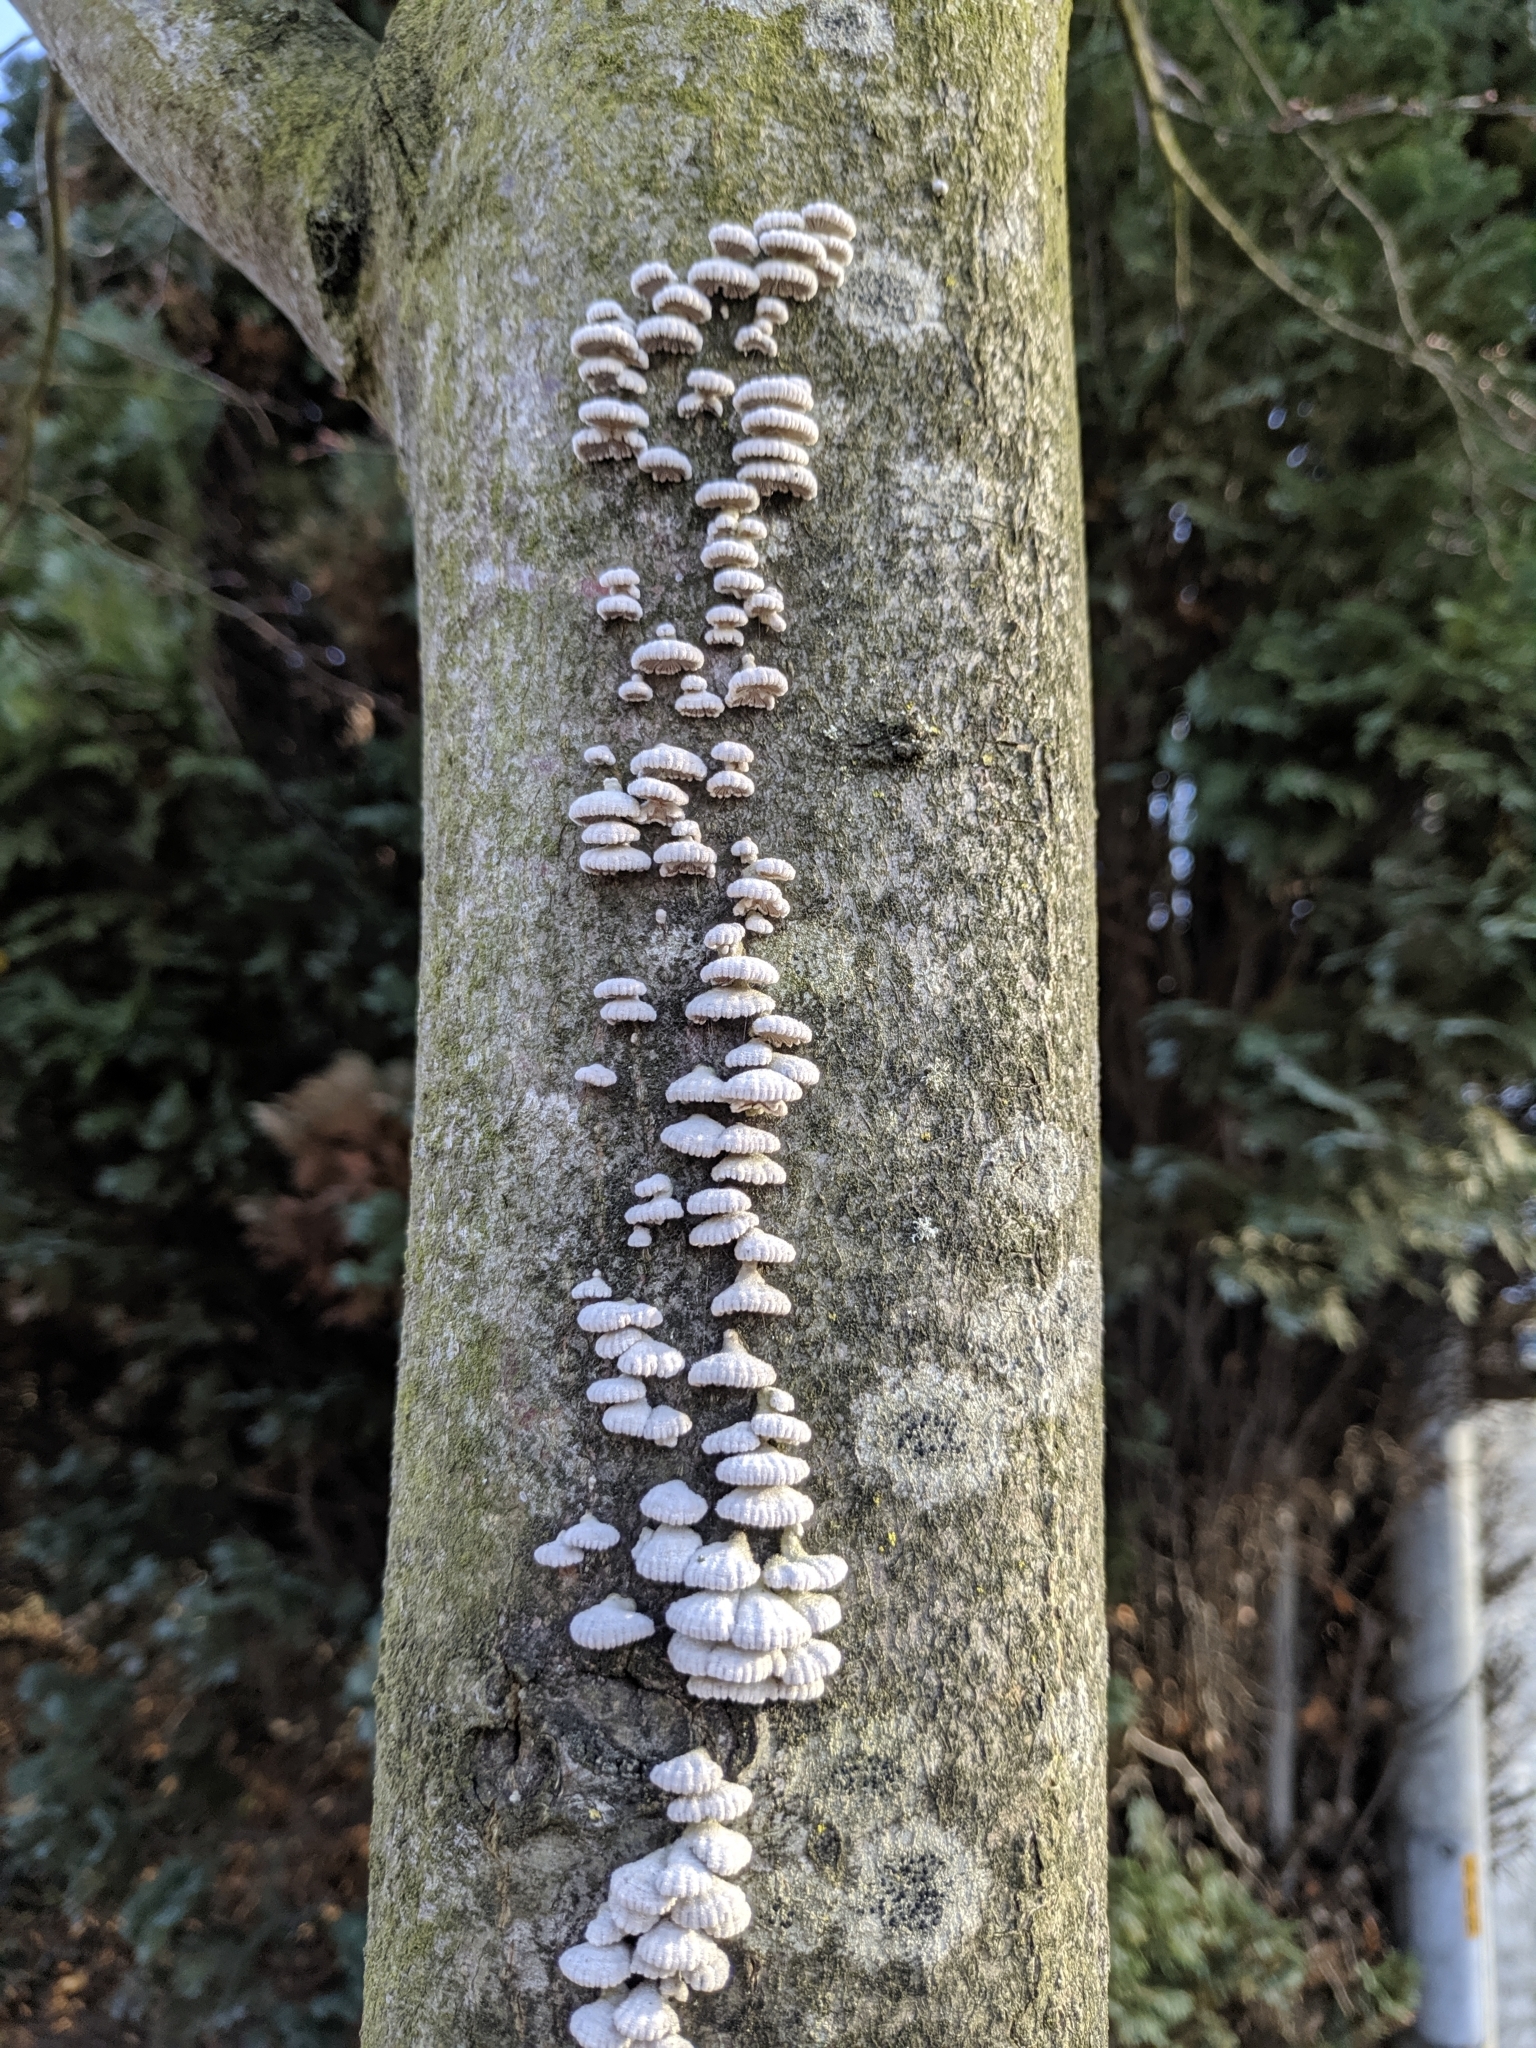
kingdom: Fungi
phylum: Basidiomycota
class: Agaricomycetes
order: Agaricales
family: Schizophyllaceae
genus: Schizophyllum
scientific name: Schizophyllum commune
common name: Common porecrust
